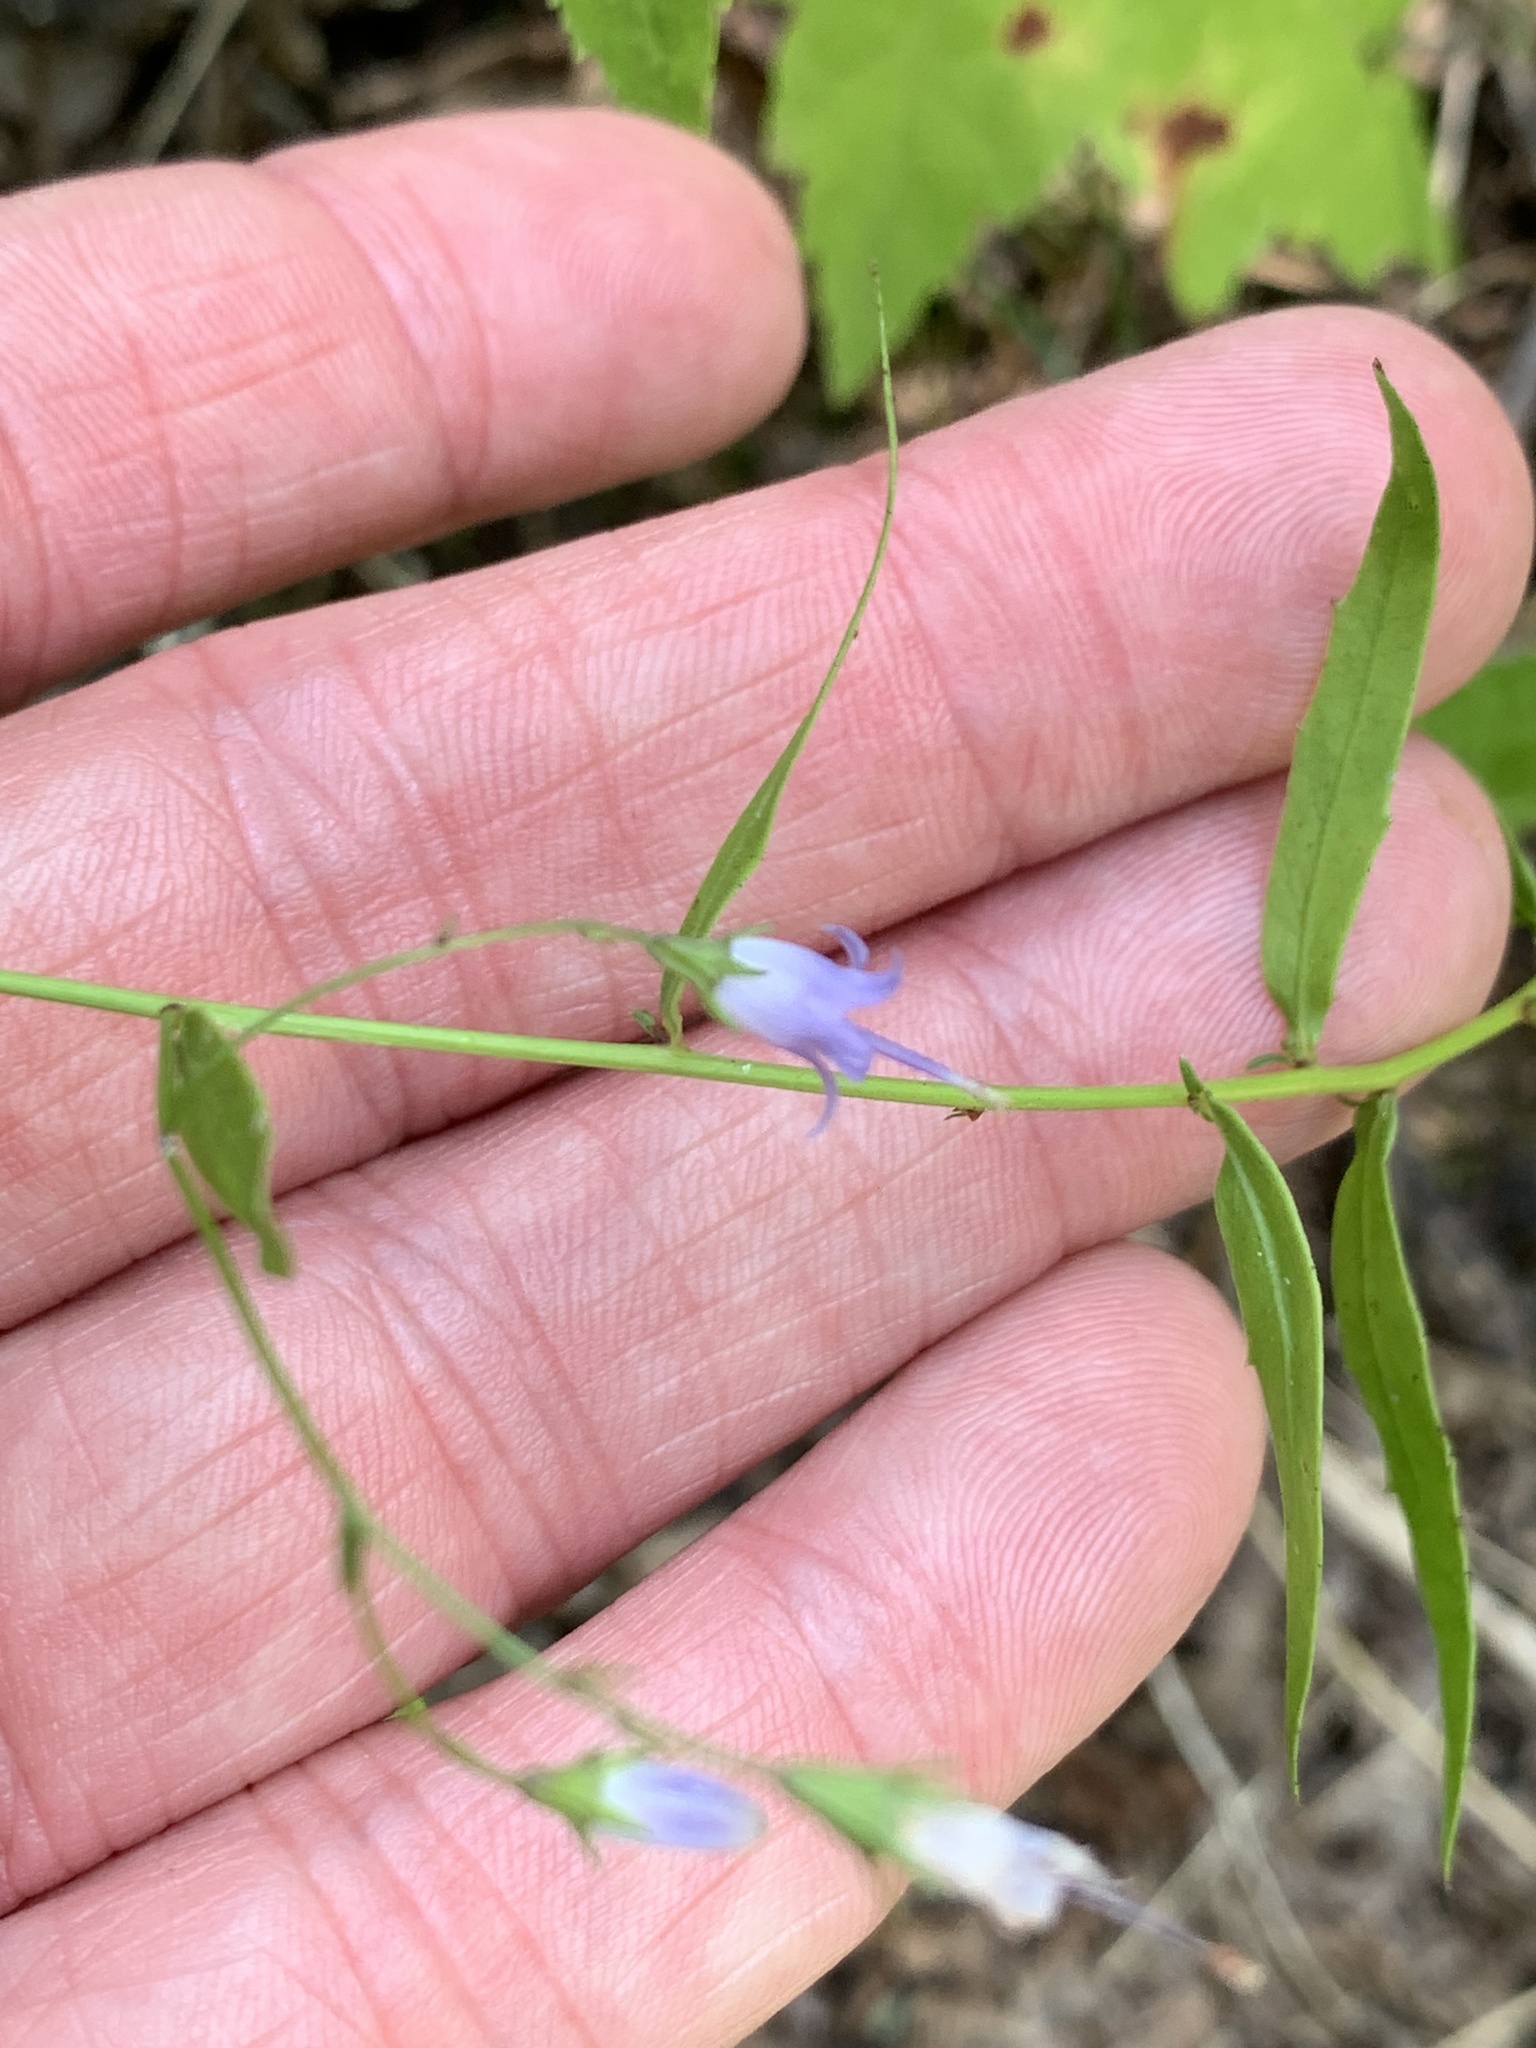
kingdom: Plantae
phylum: Tracheophyta
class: Magnoliopsida
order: Asterales
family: Campanulaceae
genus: Campanula
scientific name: Campanula divaricata
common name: Appalachian bellflower
